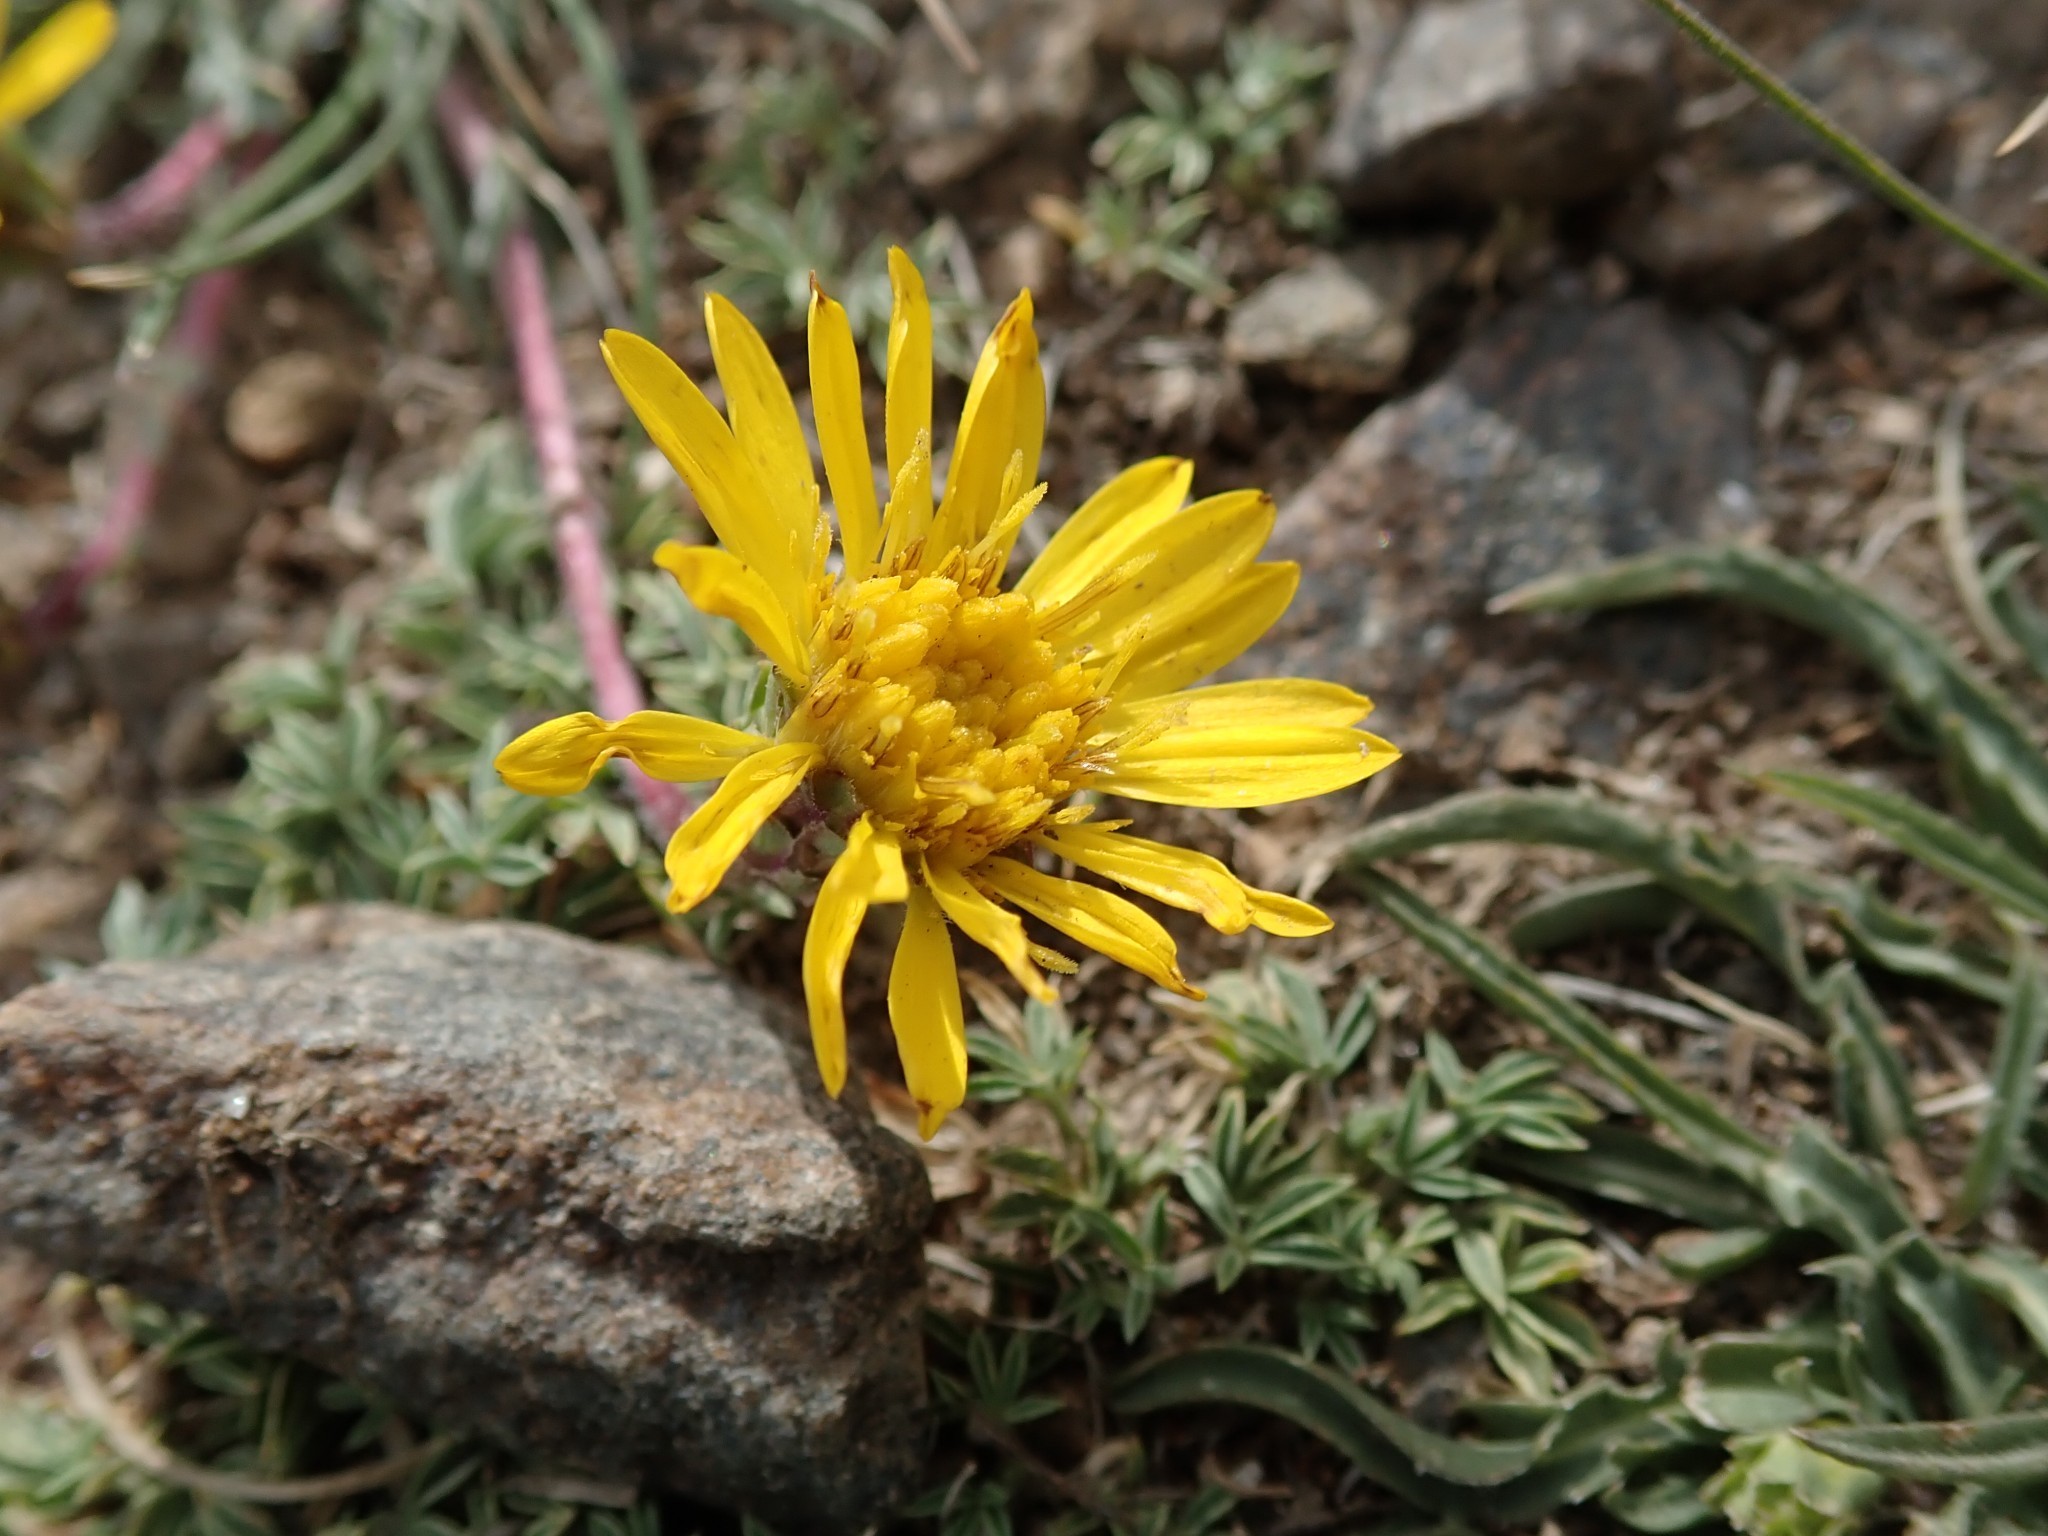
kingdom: Plantae
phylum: Tracheophyta
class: Magnoliopsida
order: Asterales
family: Asteraceae
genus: Pyrrocoma
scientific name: Pyrrocoma apargioides
